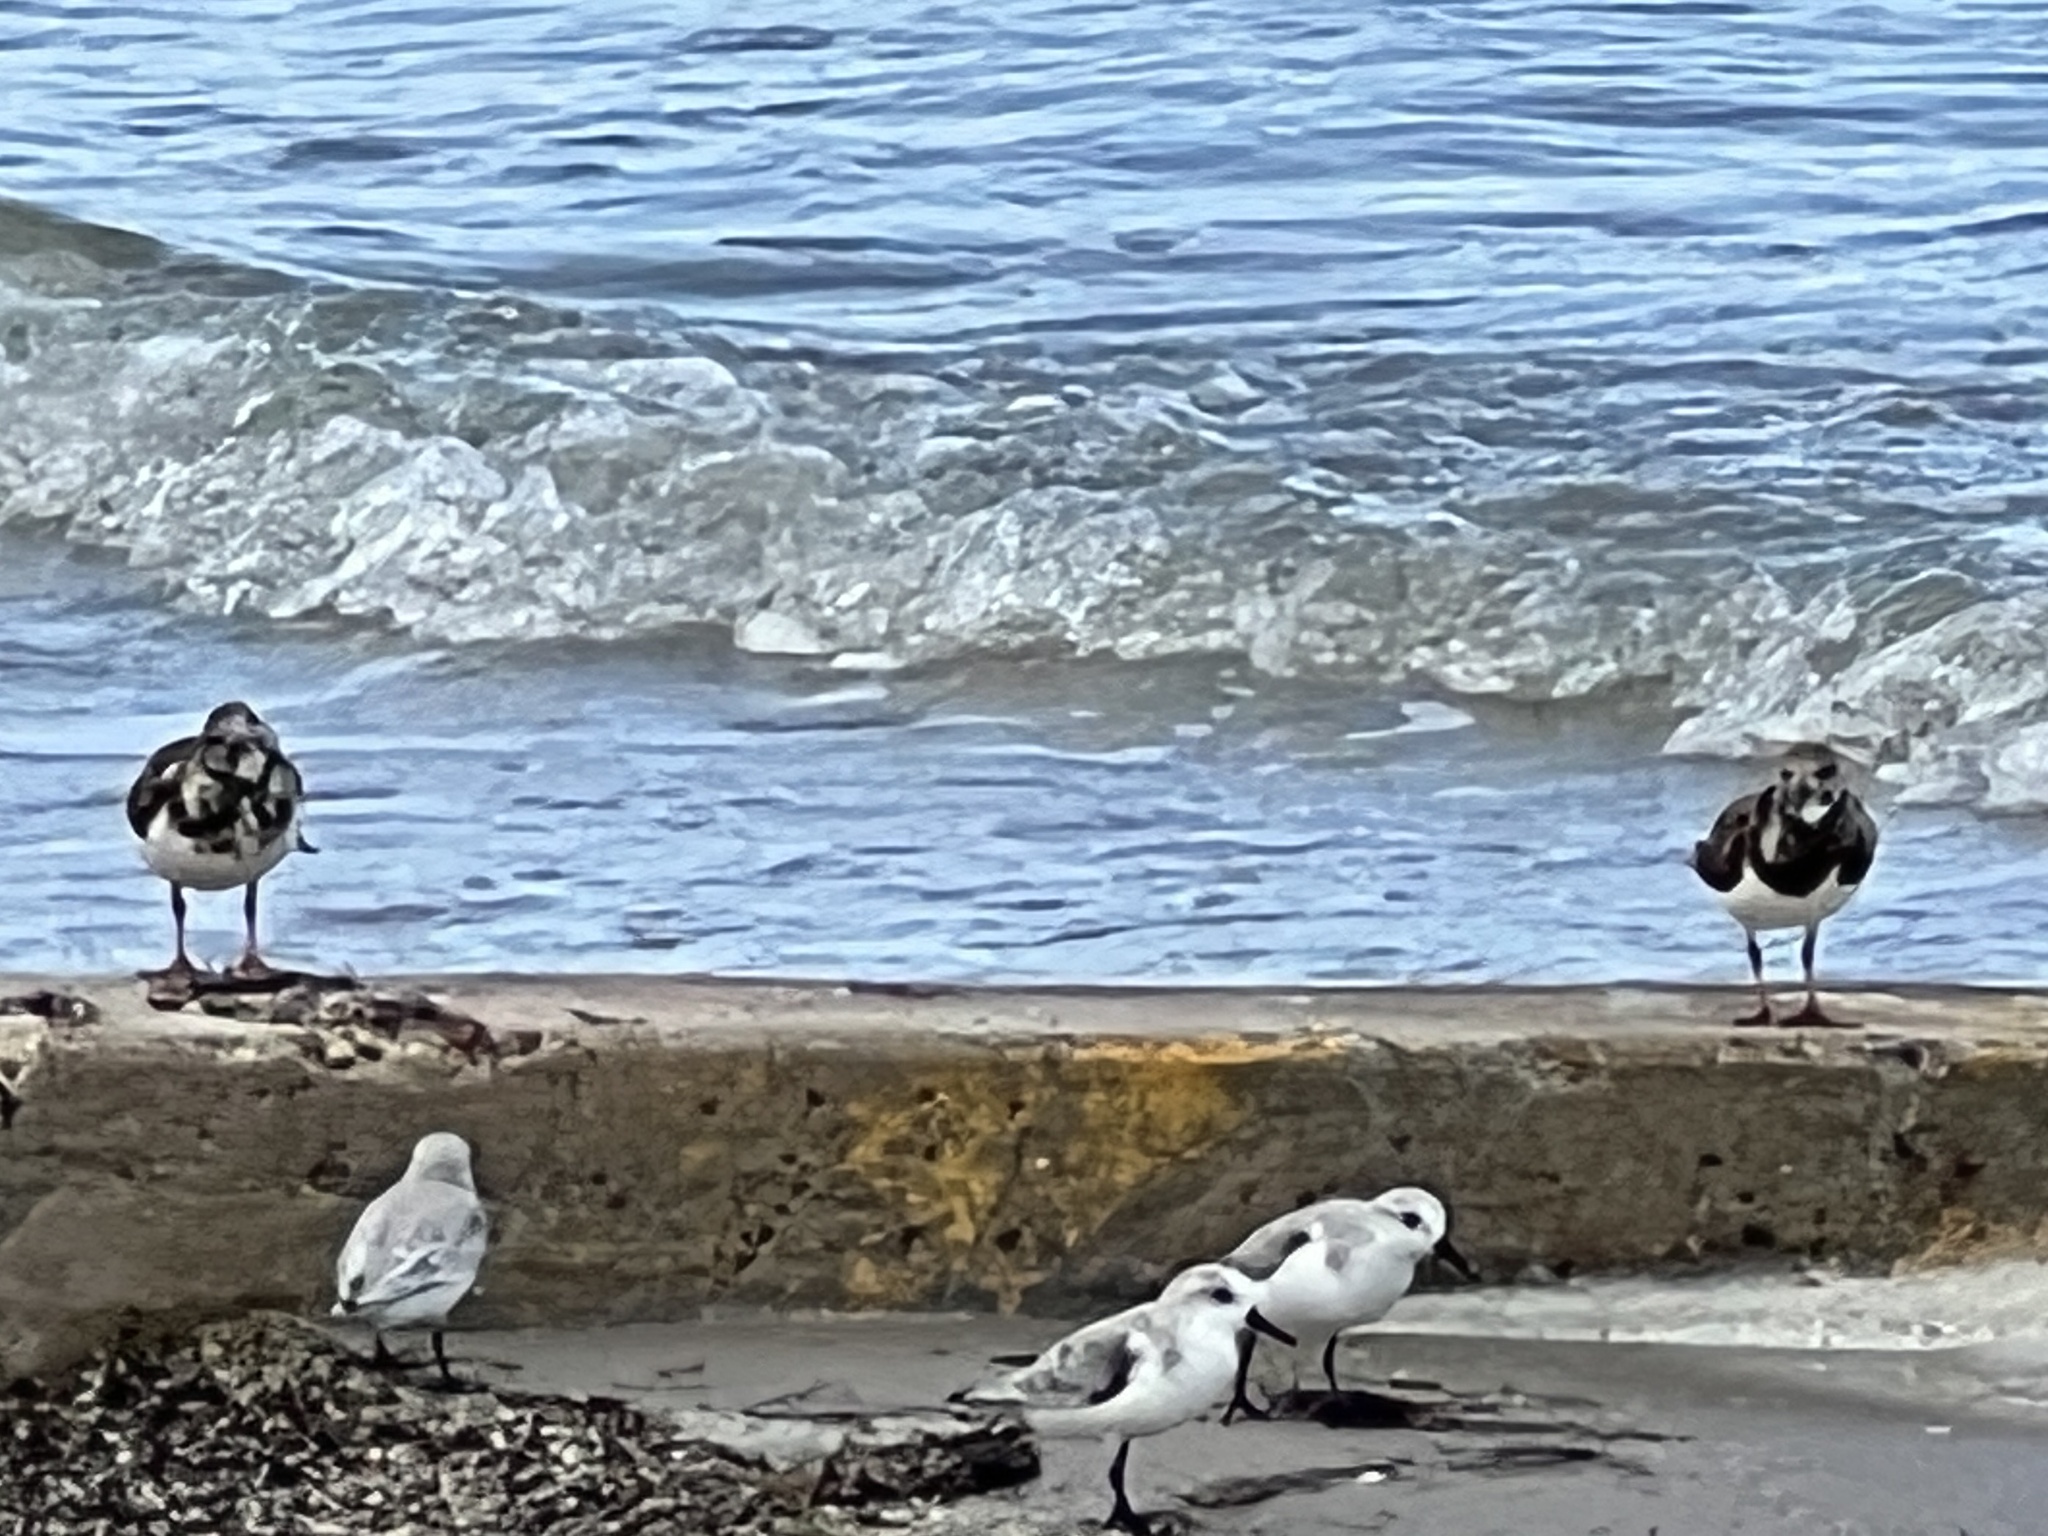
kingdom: Animalia
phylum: Chordata
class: Aves
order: Charadriiformes
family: Scolopacidae
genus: Arenaria
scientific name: Arenaria interpres
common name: Ruddy turnstone
